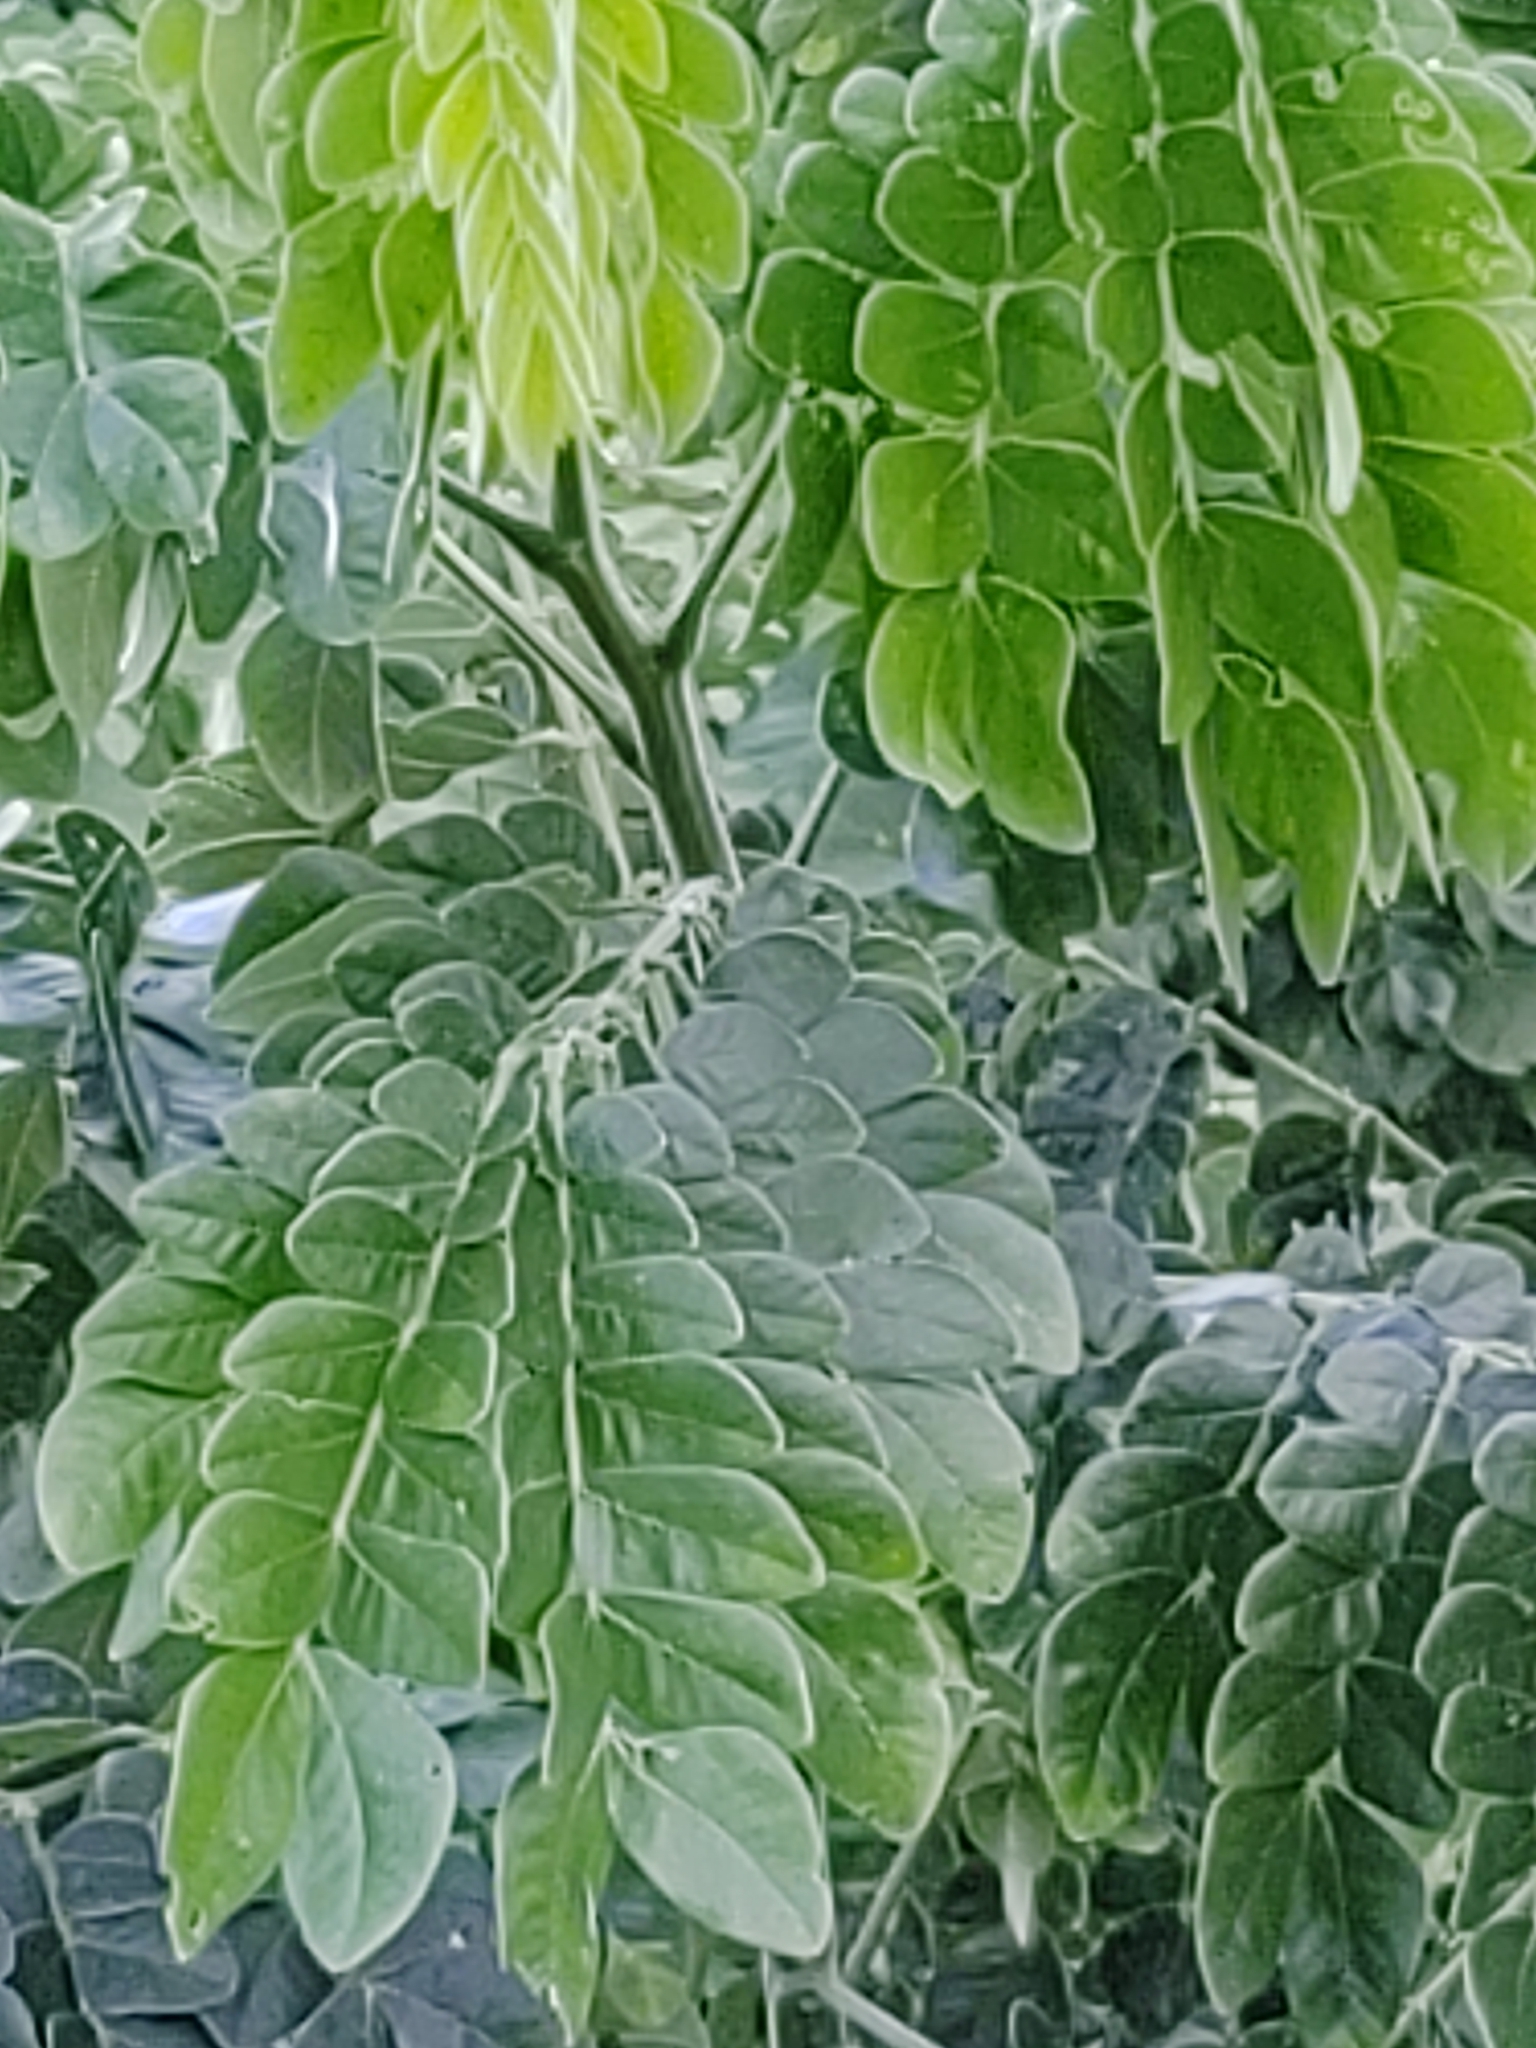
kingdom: Plantae
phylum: Tracheophyta
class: Magnoliopsida
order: Fabales
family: Fabaceae
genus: Samanea
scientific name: Samanea saman
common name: Raintree
